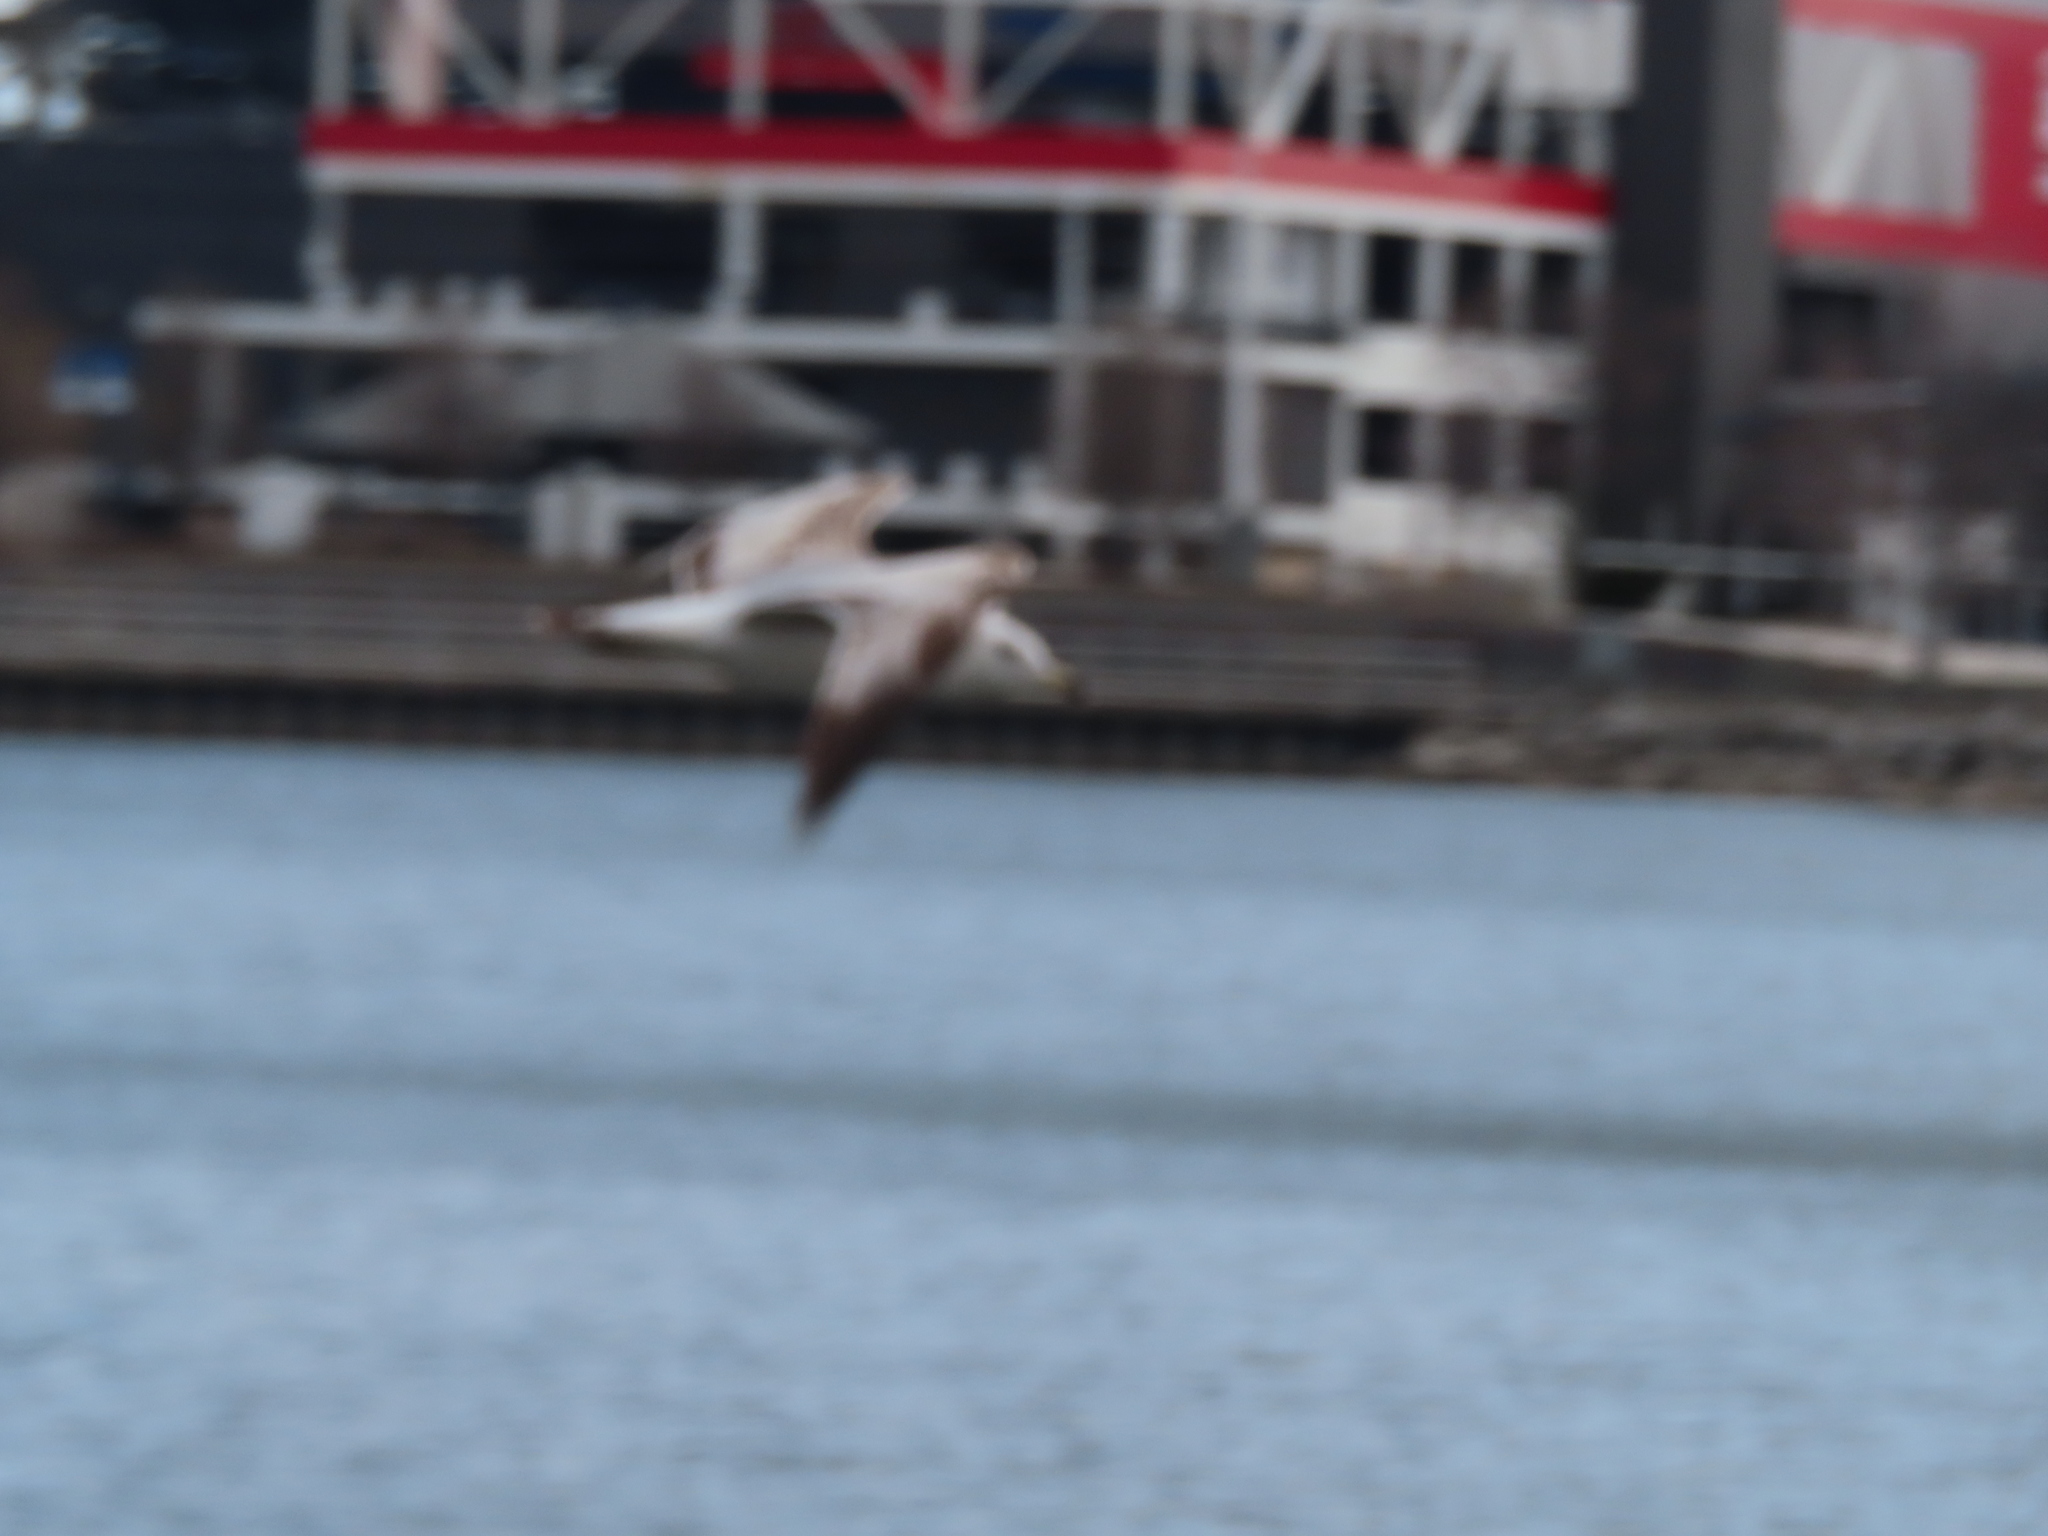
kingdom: Animalia
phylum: Chordata
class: Aves
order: Charadriiformes
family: Laridae
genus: Larus
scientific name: Larus delawarensis
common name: Ring-billed gull
